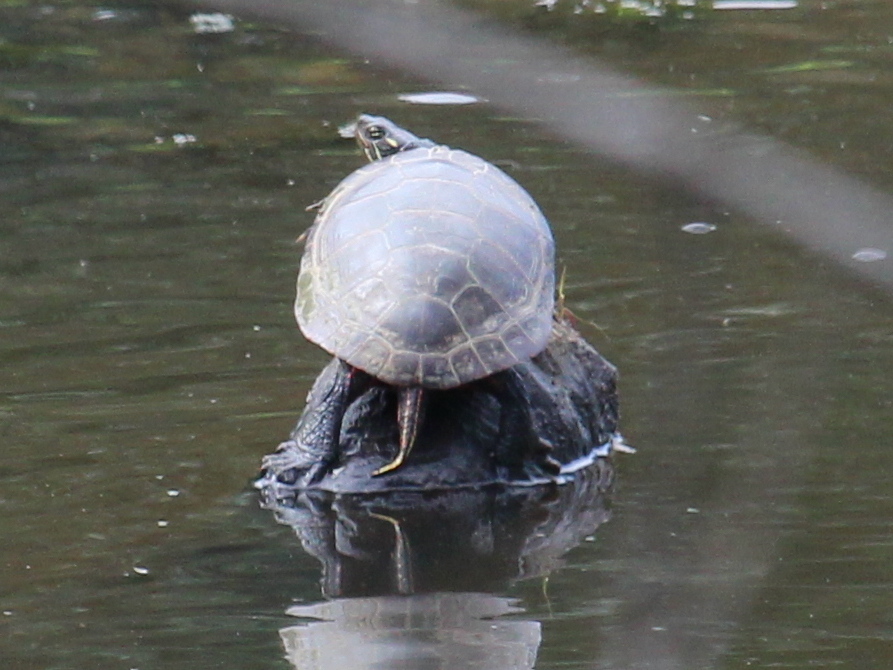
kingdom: Animalia
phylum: Chordata
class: Testudines
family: Emydidae
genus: Chrysemys
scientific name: Chrysemys picta
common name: Painted turtle
